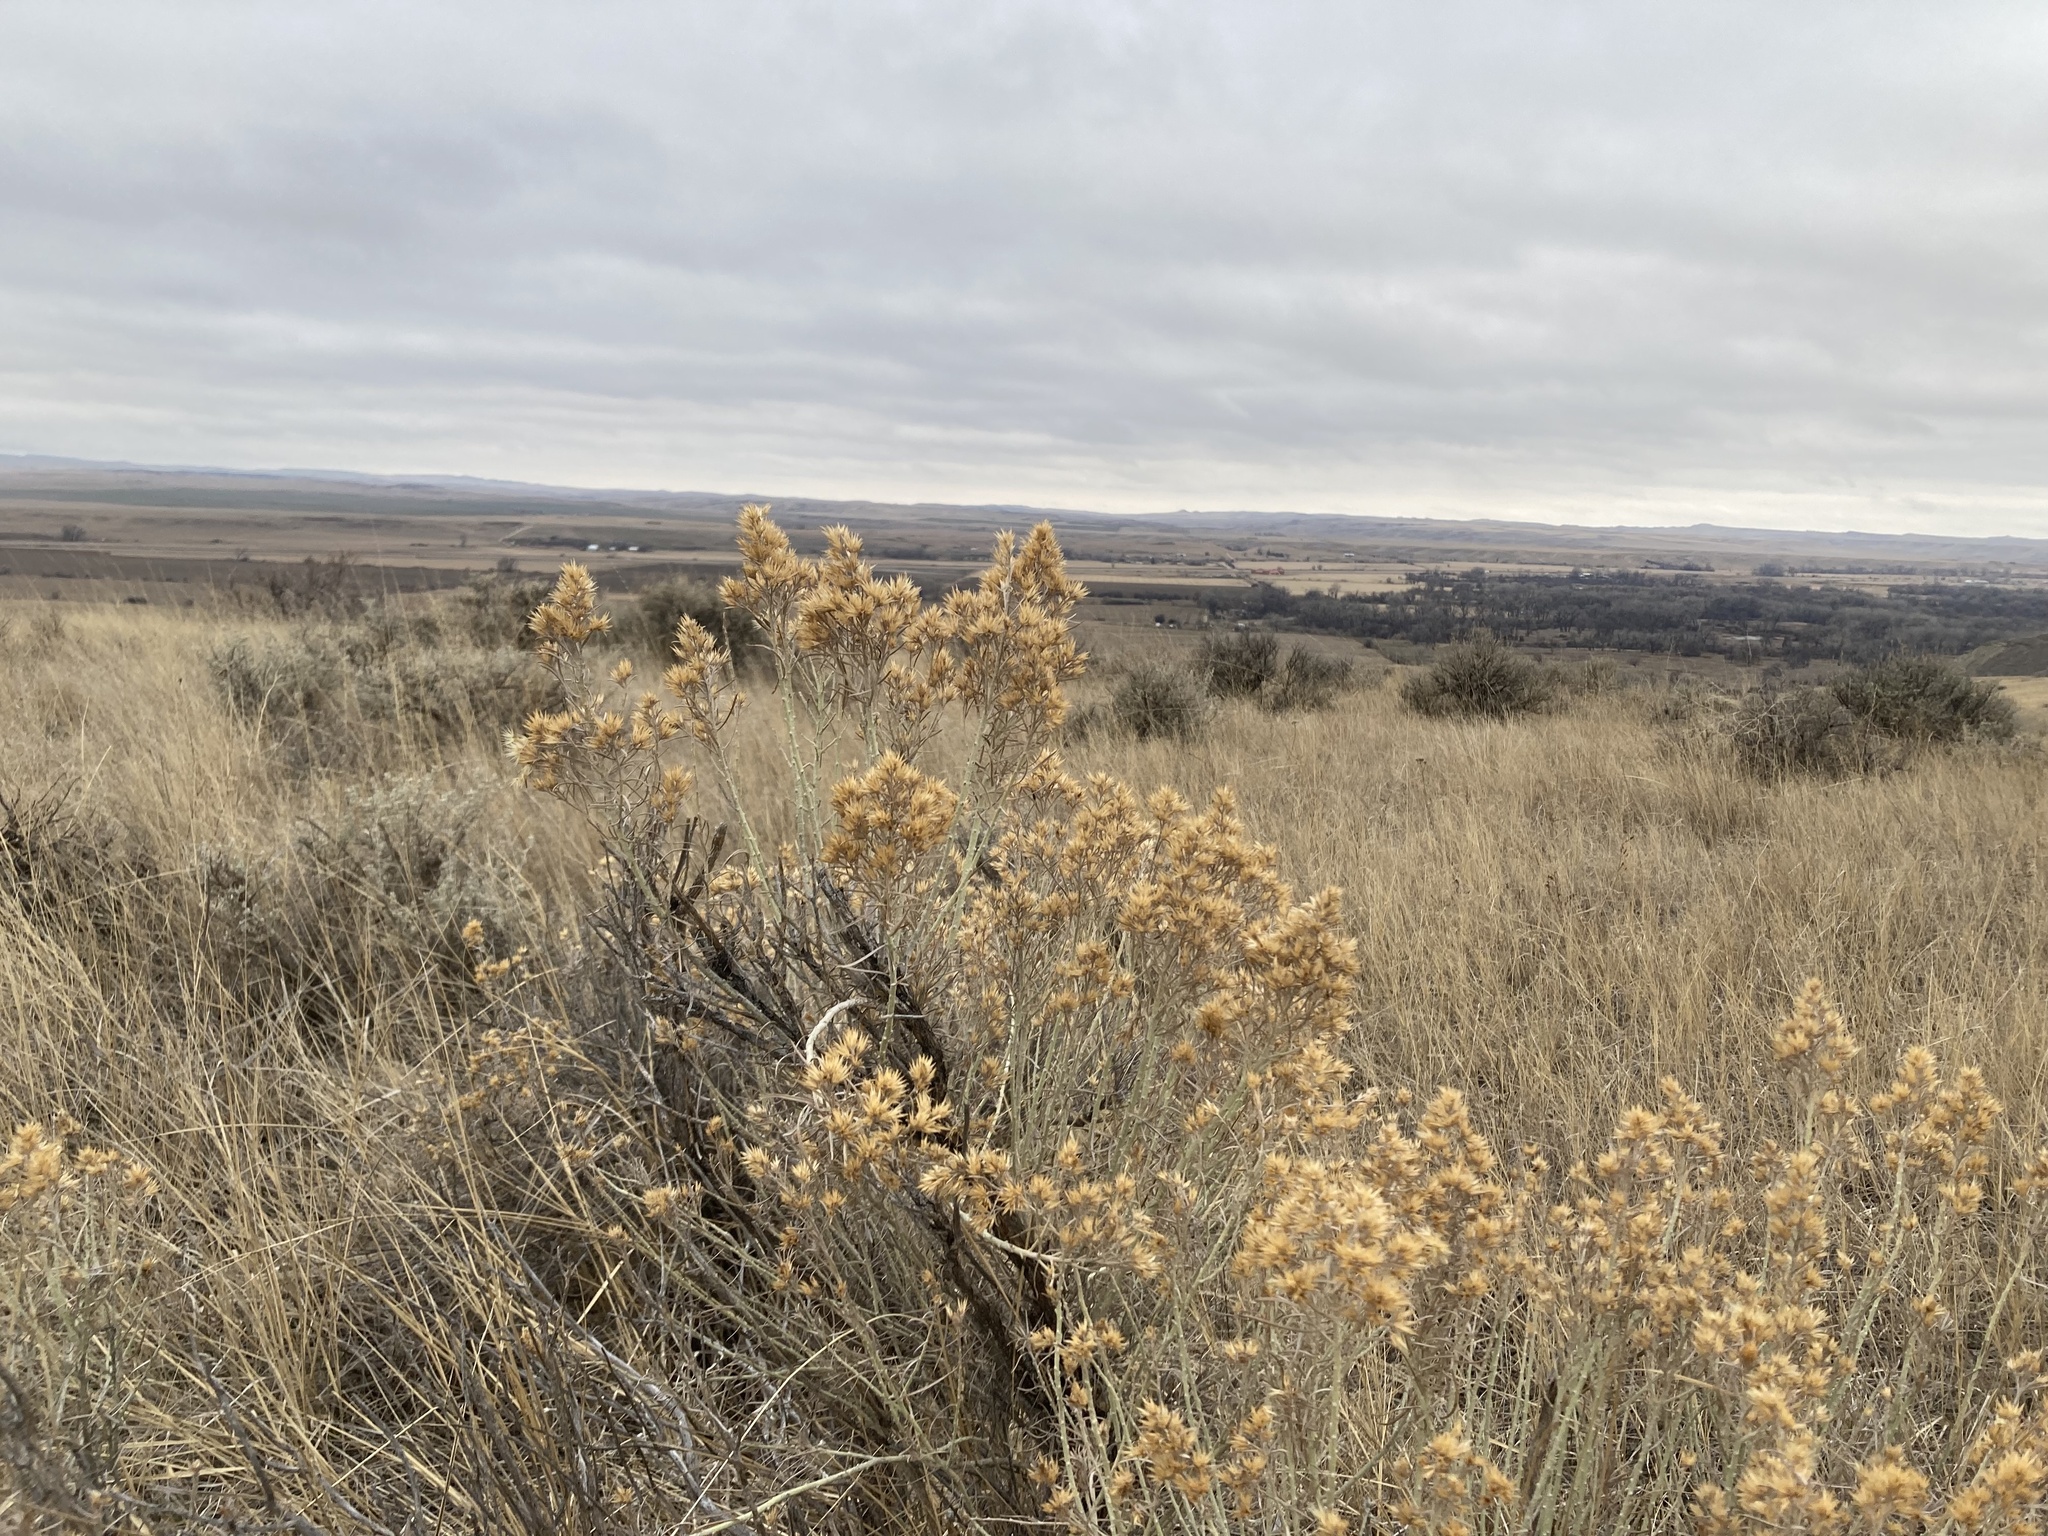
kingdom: Plantae
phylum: Tracheophyta
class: Magnoliopsida
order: Asterales
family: Asteraceae
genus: Ericameria
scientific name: Ericameria nauseosa
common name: Rubber rabbitbrush
